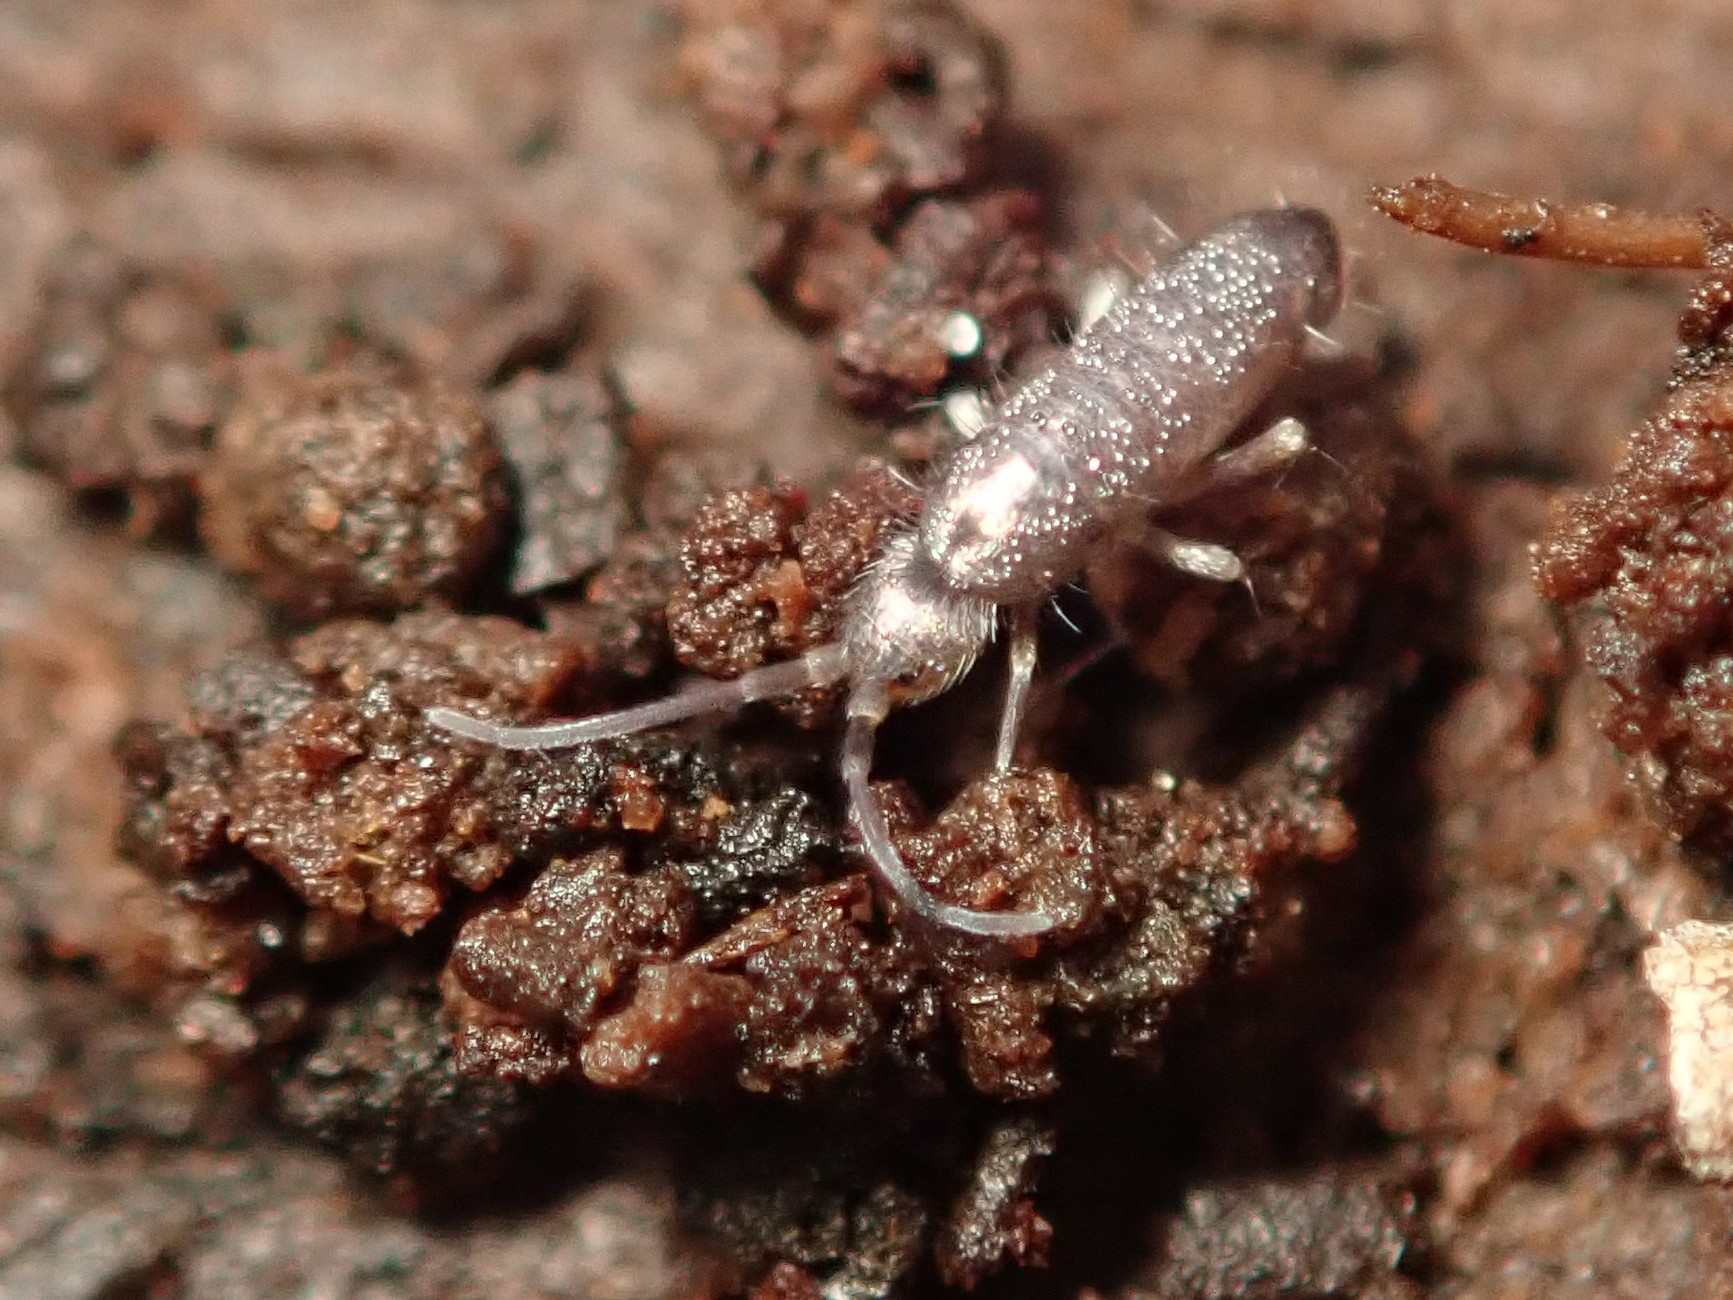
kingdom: Animalia
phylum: Arthropoda
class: Collembola
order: Entomobryomorpha
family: Tomoceridae
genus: Tomocerus
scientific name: Tomocerus minor
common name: Springtail
